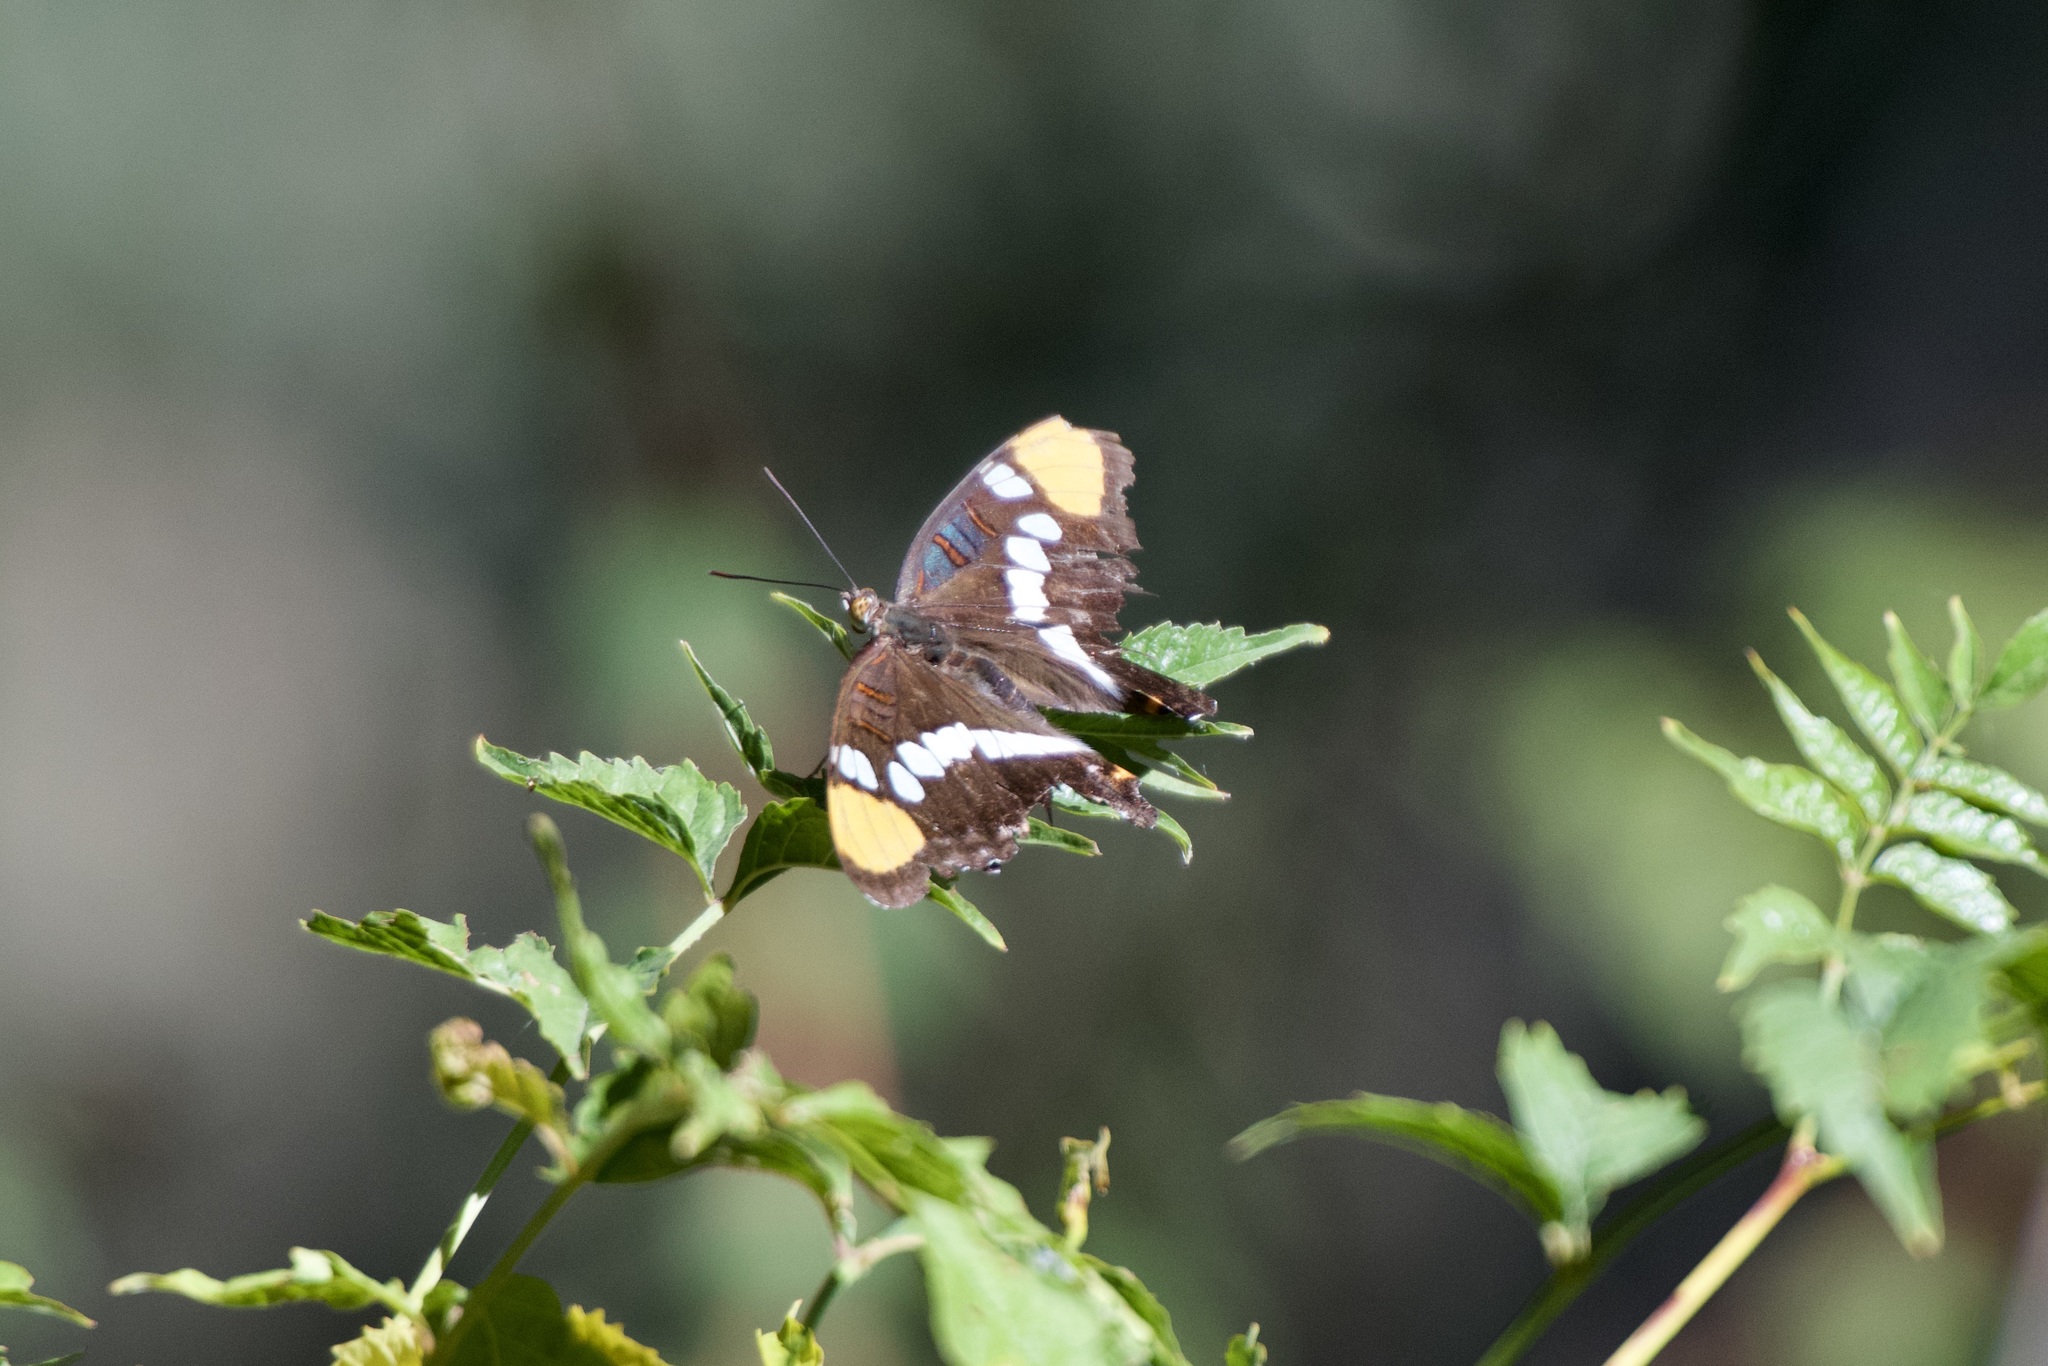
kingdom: Animalia
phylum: Arthropoda
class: Insecta
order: Lepidoptera
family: Nymphalidae
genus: Limenitis
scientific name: Limenitis bredowii
